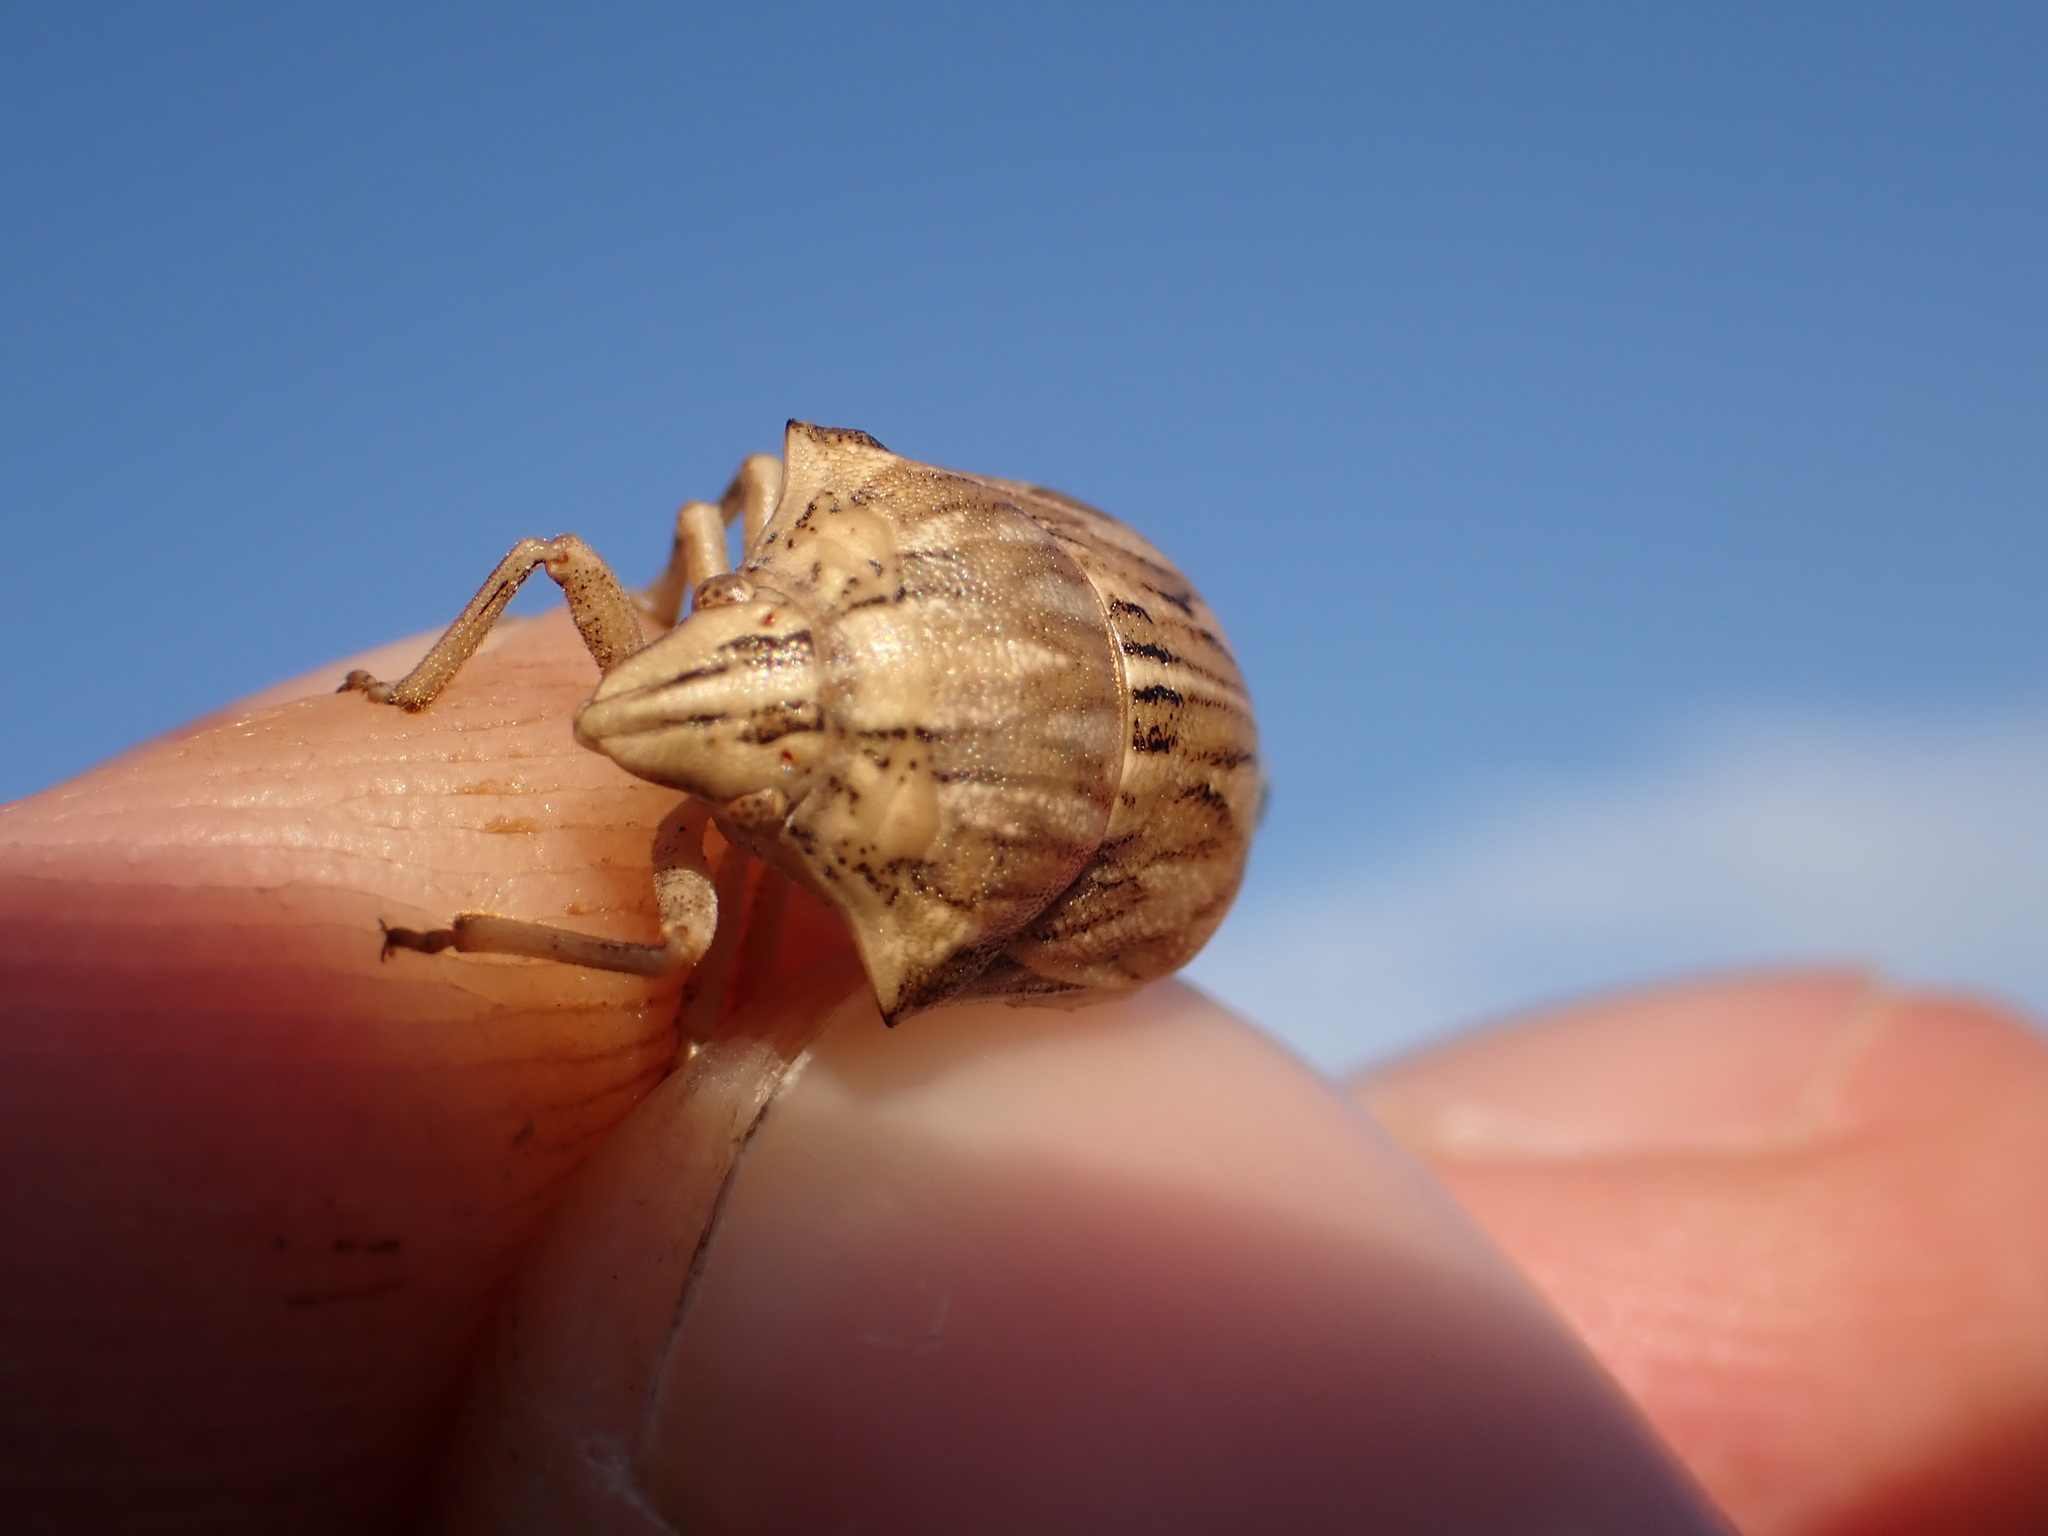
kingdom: Animalia
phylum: Arthropoda
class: Insecta
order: Hemiptera
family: Scutelleridae
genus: Odontotarsus
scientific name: Odontotarsus robustus
